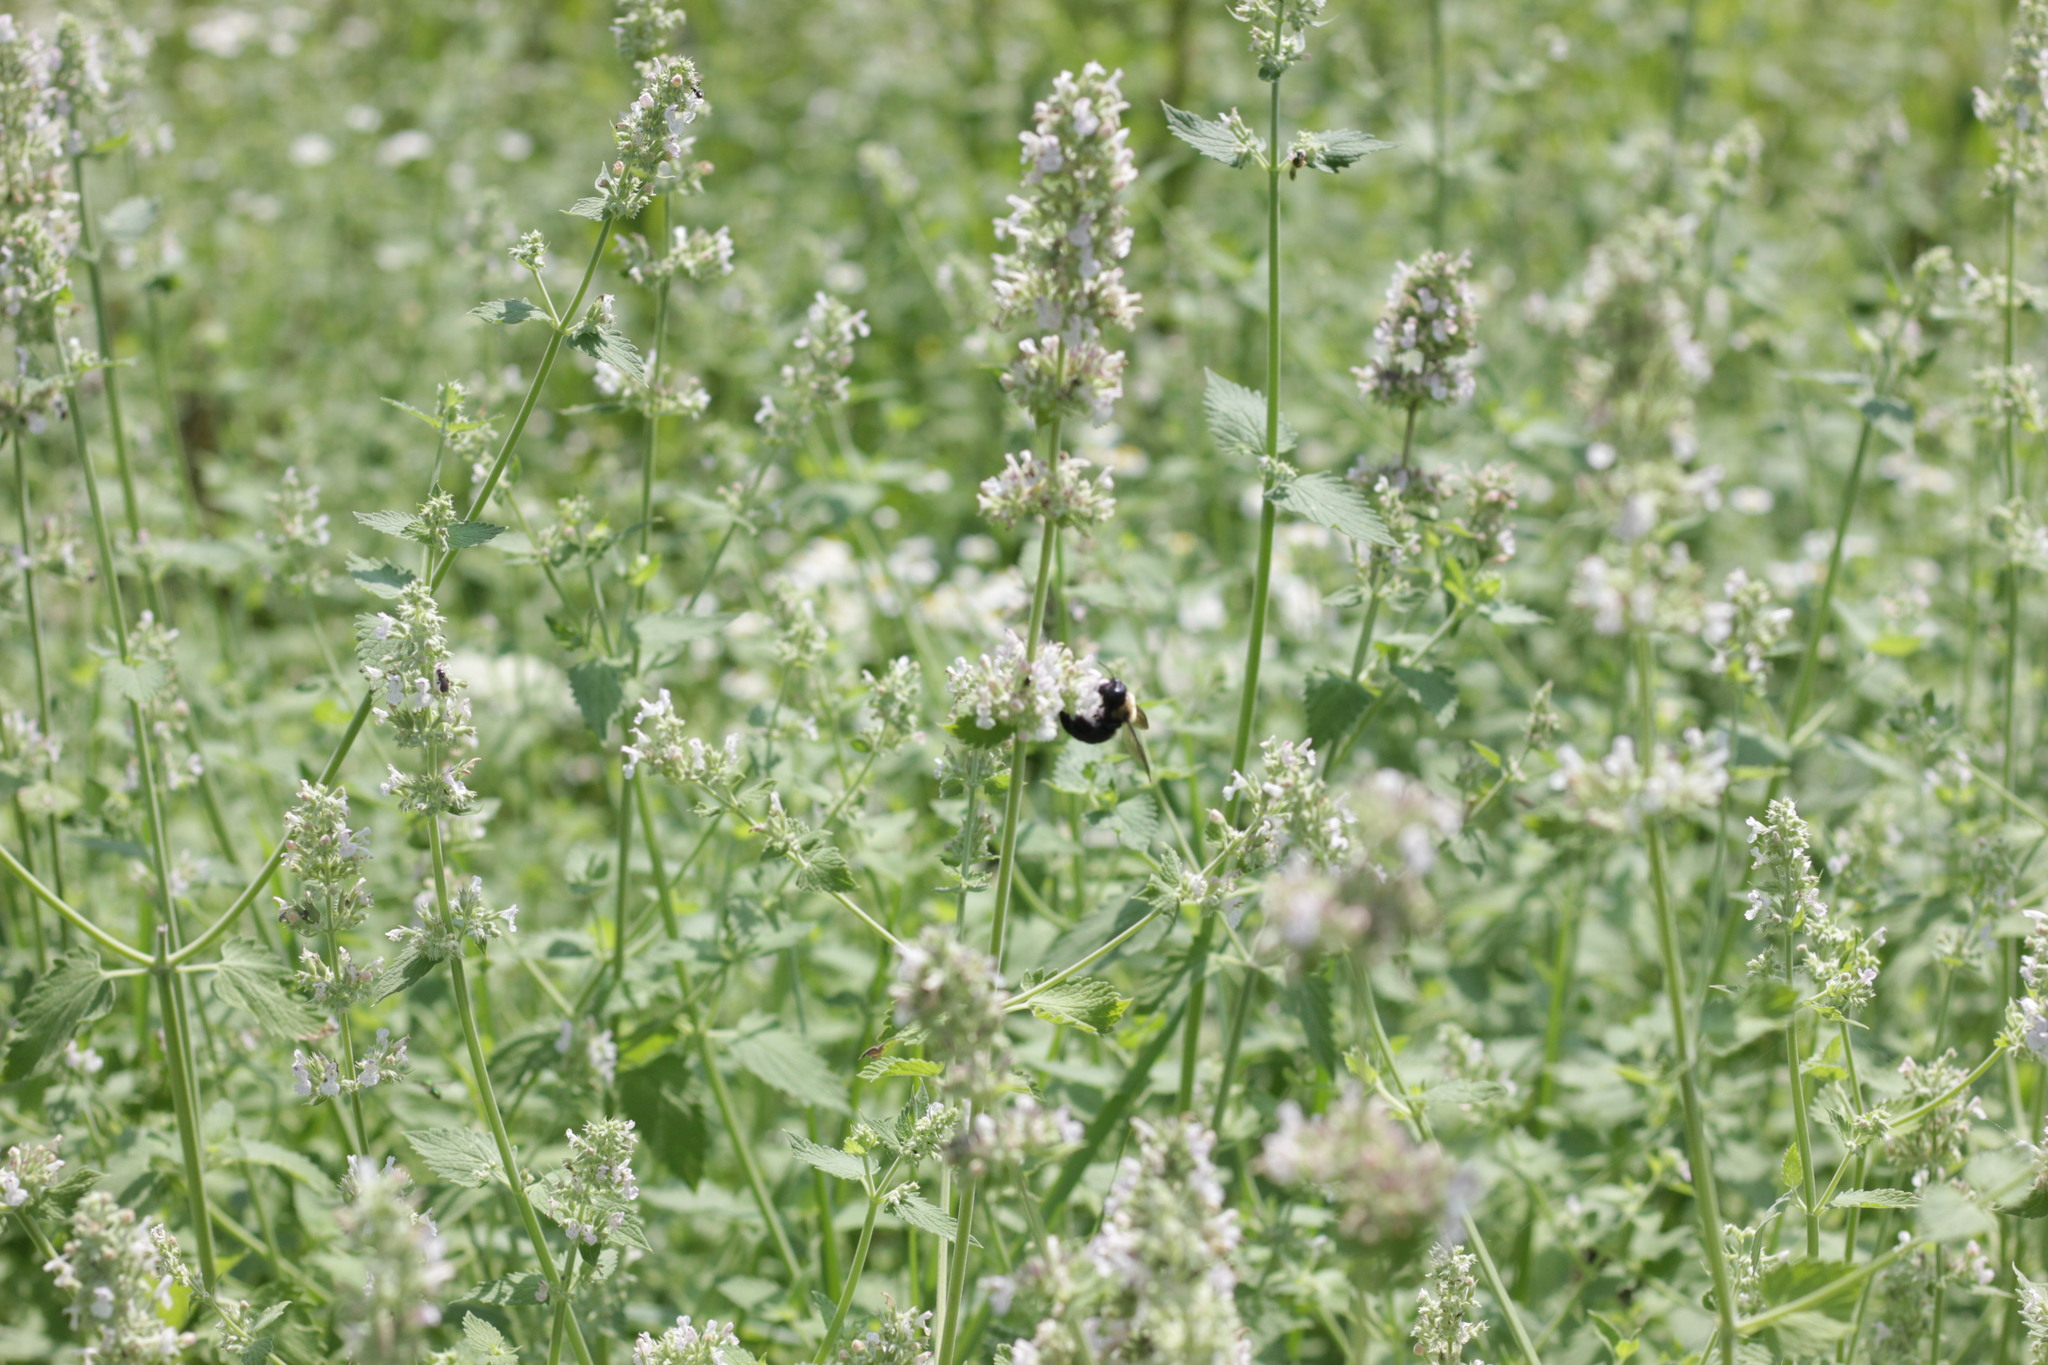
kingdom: Animalia
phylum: Arthropoda
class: Insecta
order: Hymenoptera
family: Apidae
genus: Xylocopa
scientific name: Xylocopa virginica
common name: Carpenter bee
